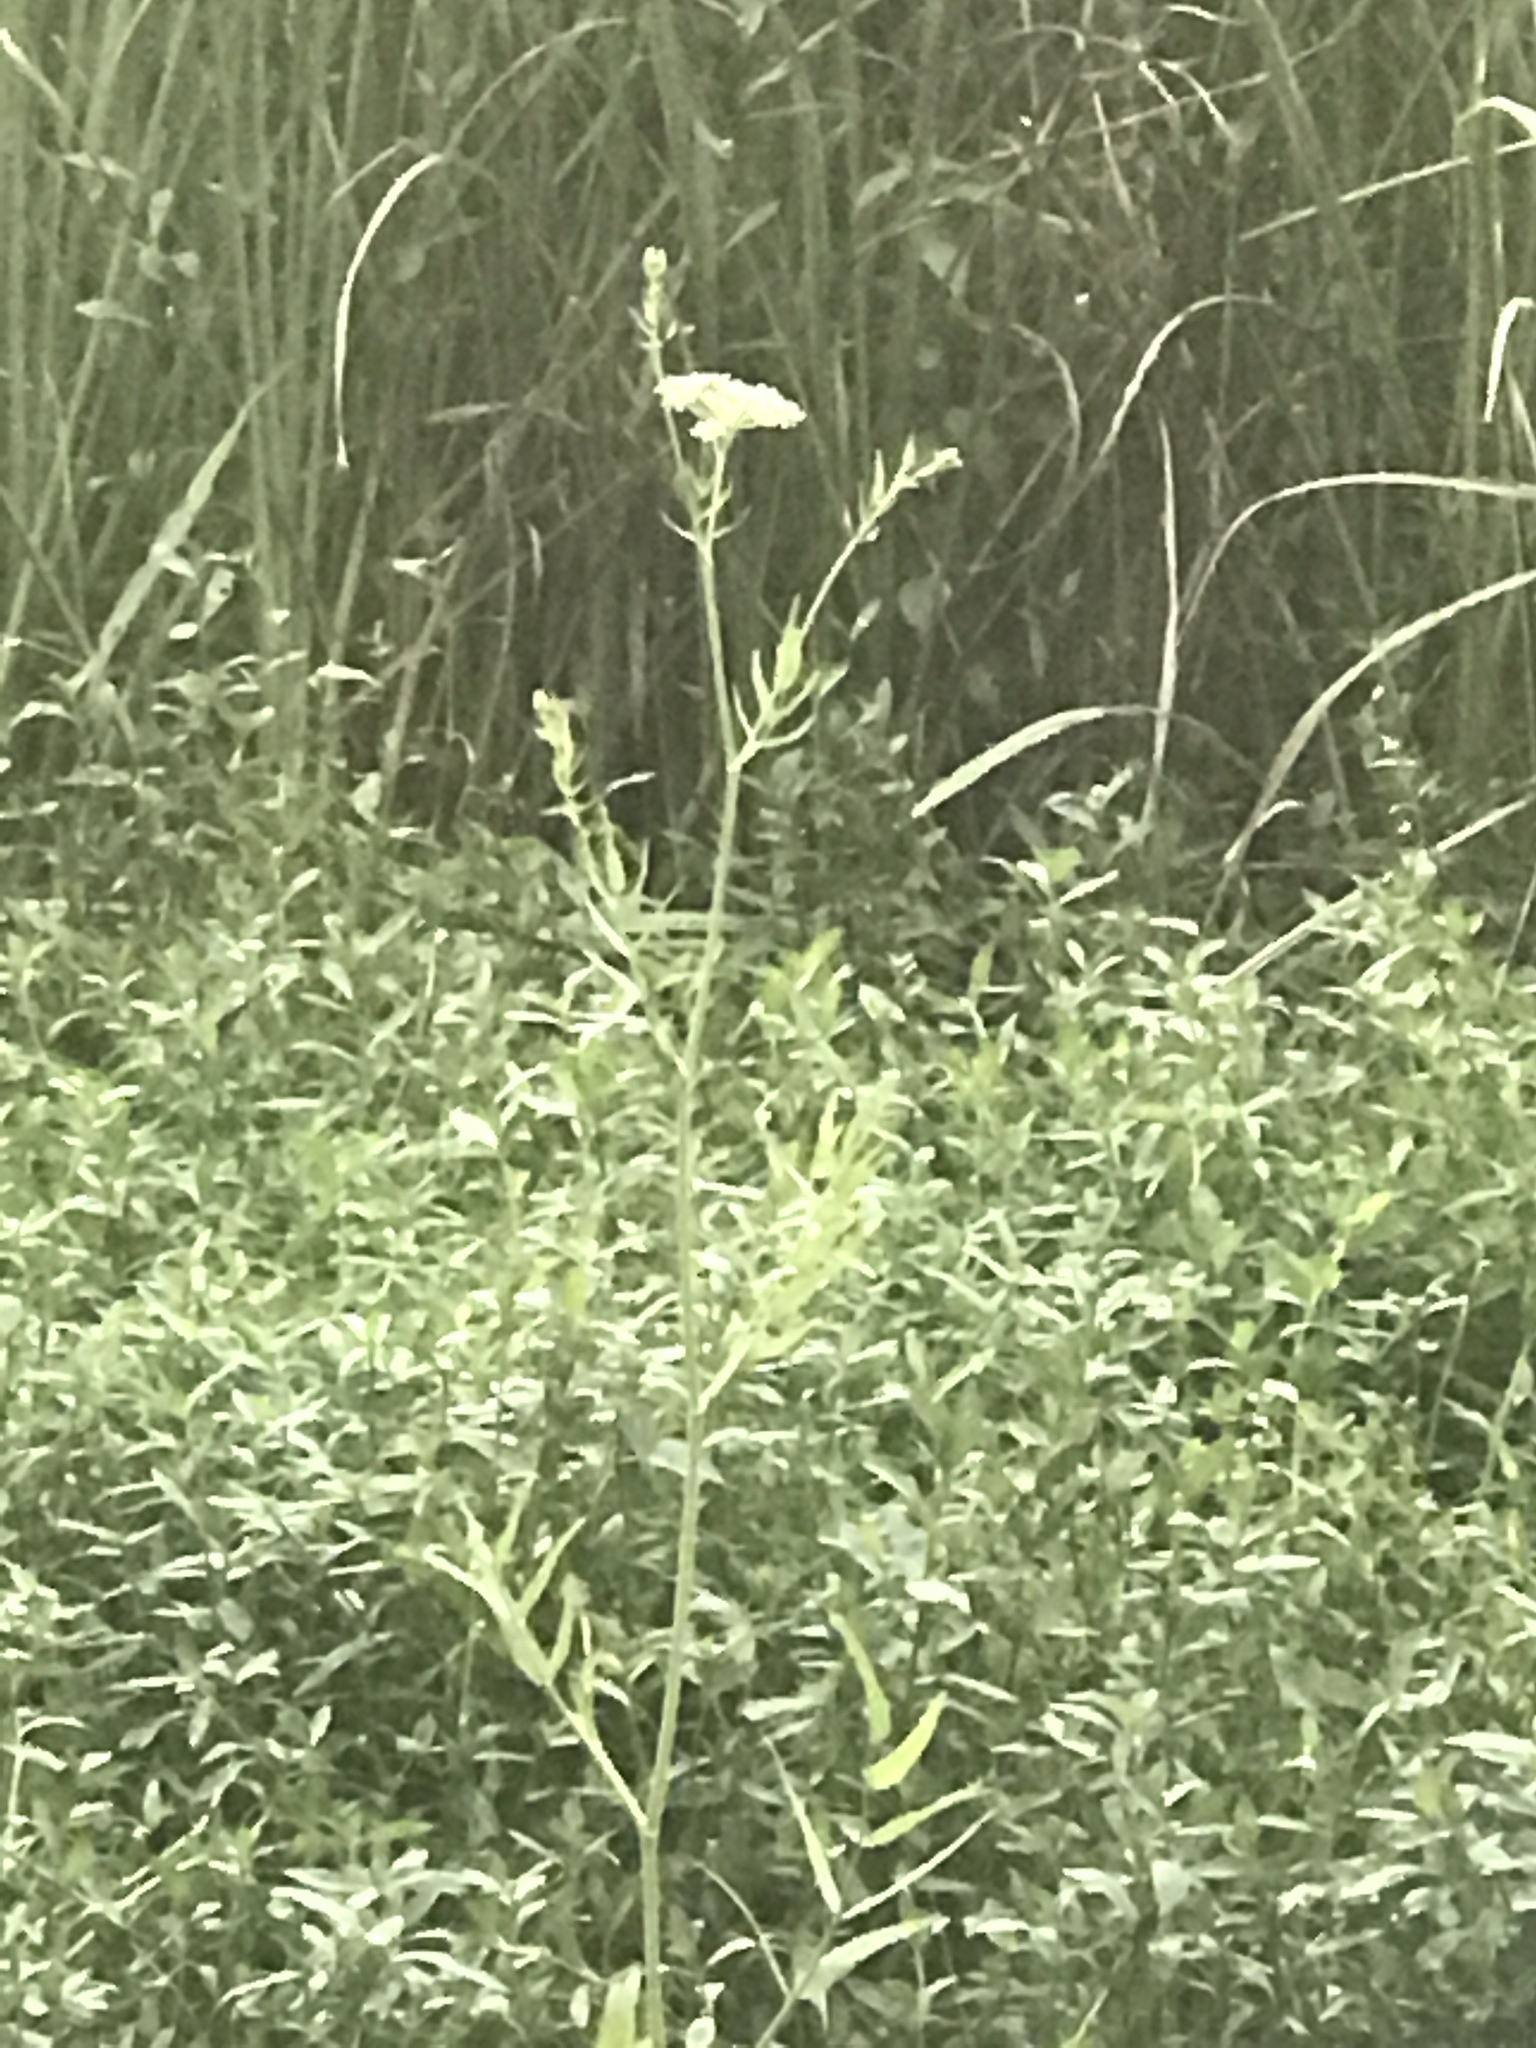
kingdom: Plantae
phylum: Tracheophyta
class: Magnoliopsida
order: Apiales
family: Apiaceae
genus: Sium
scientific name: Sium suave
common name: Hemlock water-parsnip
